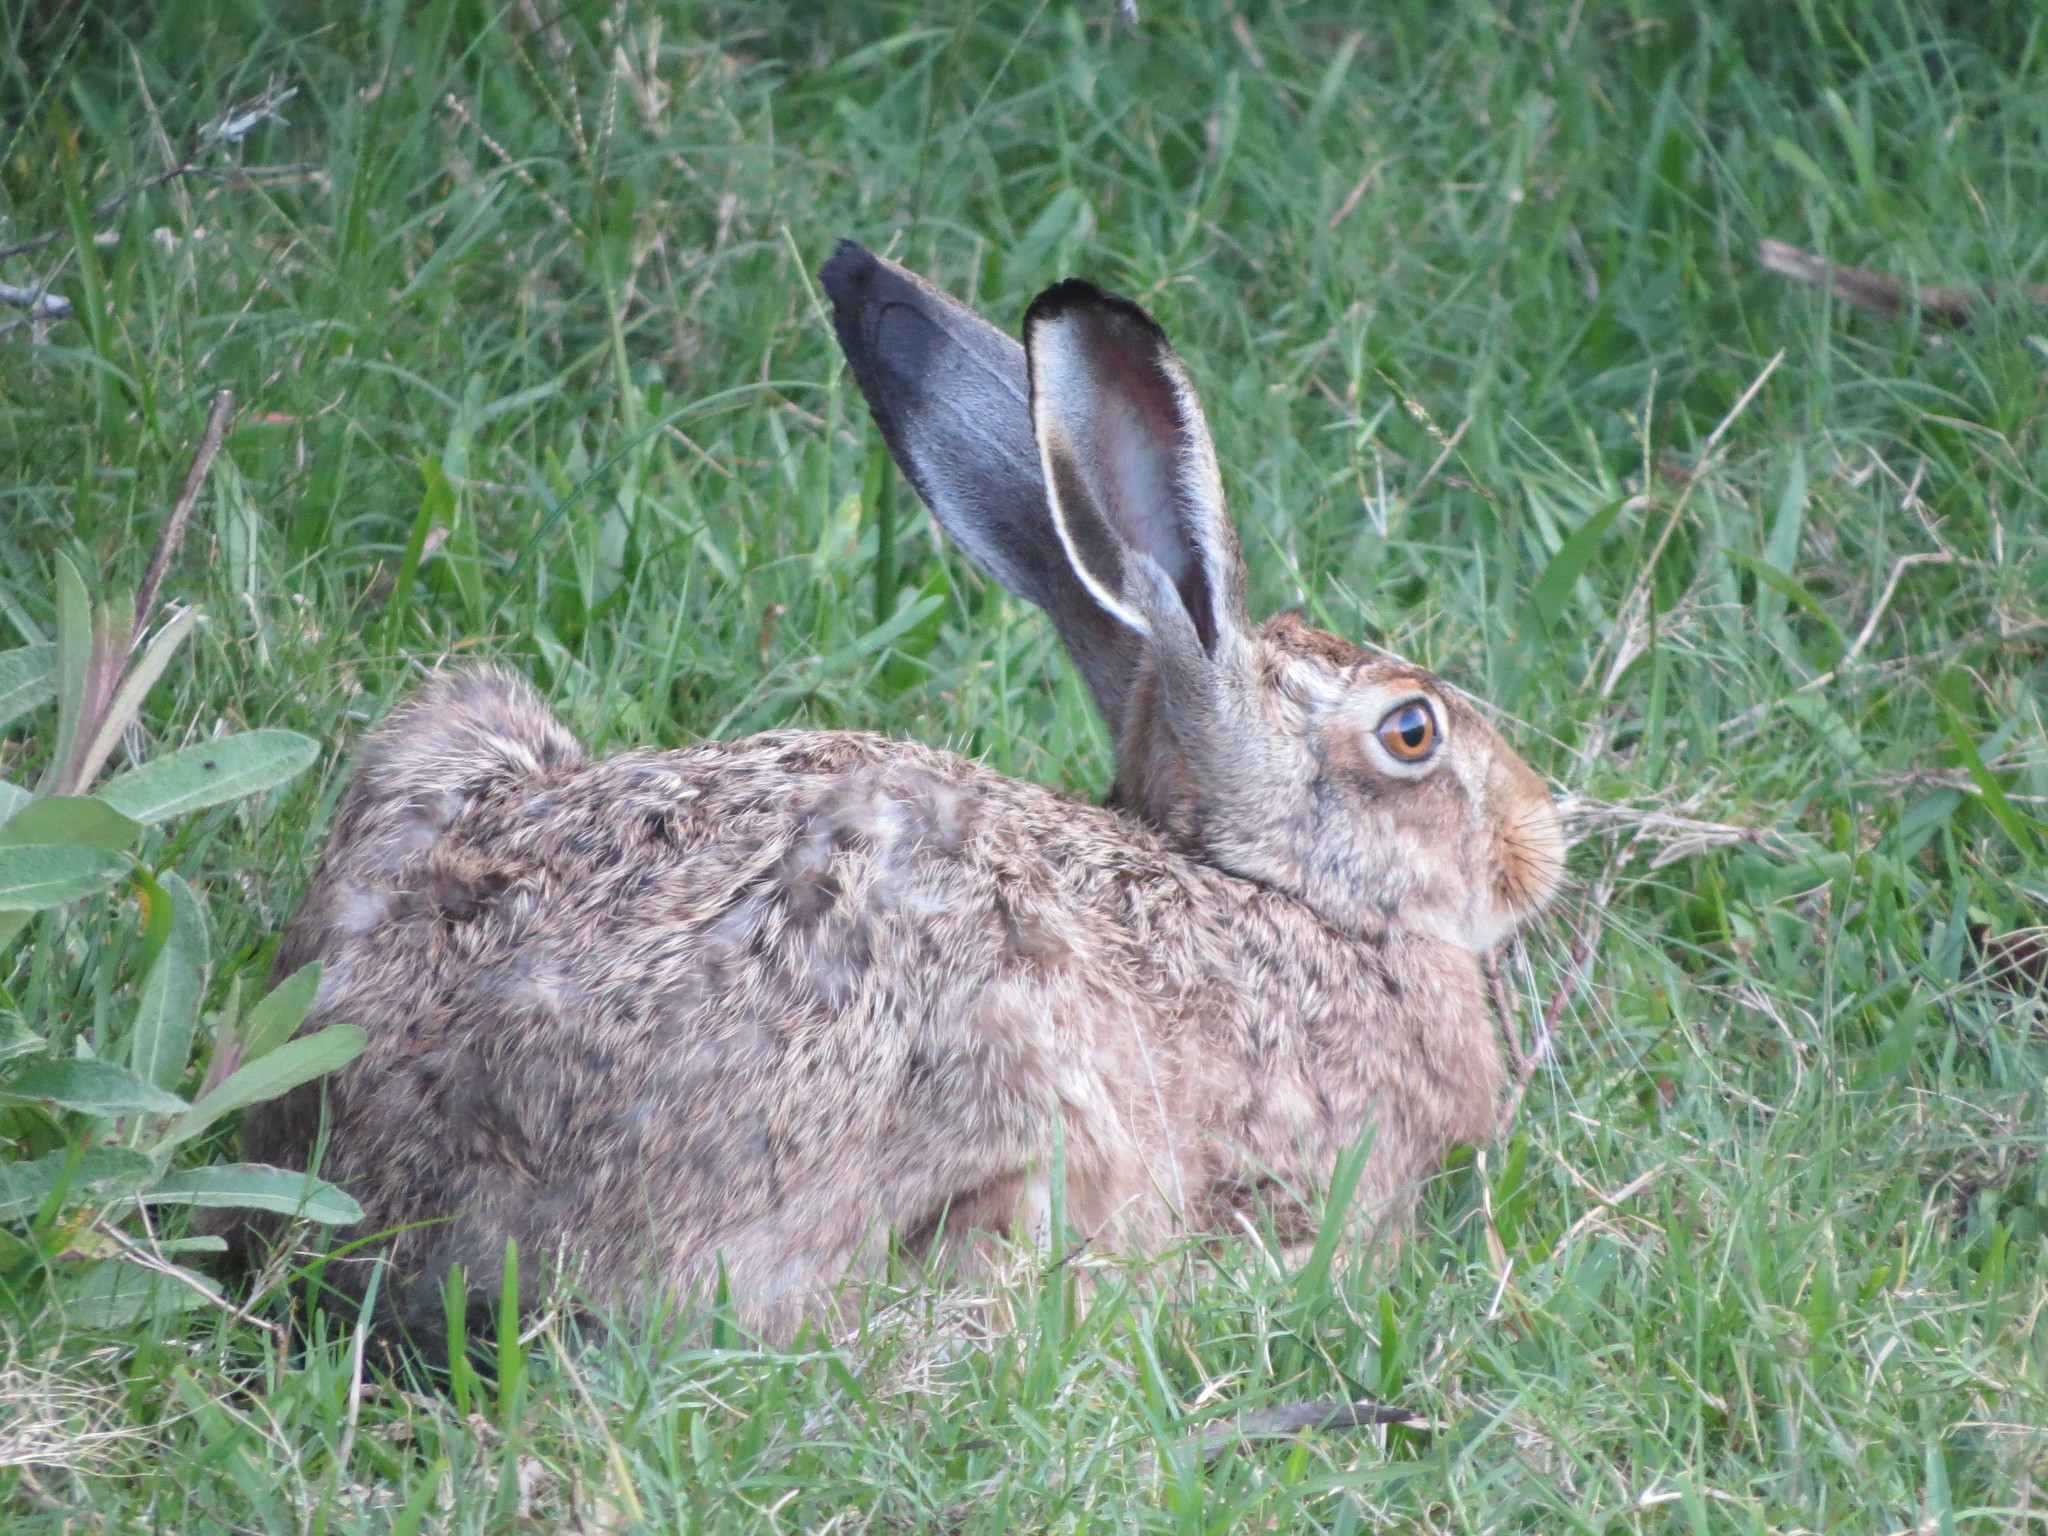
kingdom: Animalia
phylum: Chordata
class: Mammalia
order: Lagomorpha
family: Leporidae
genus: Lepus
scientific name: Lepus europaeus
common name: European hare
